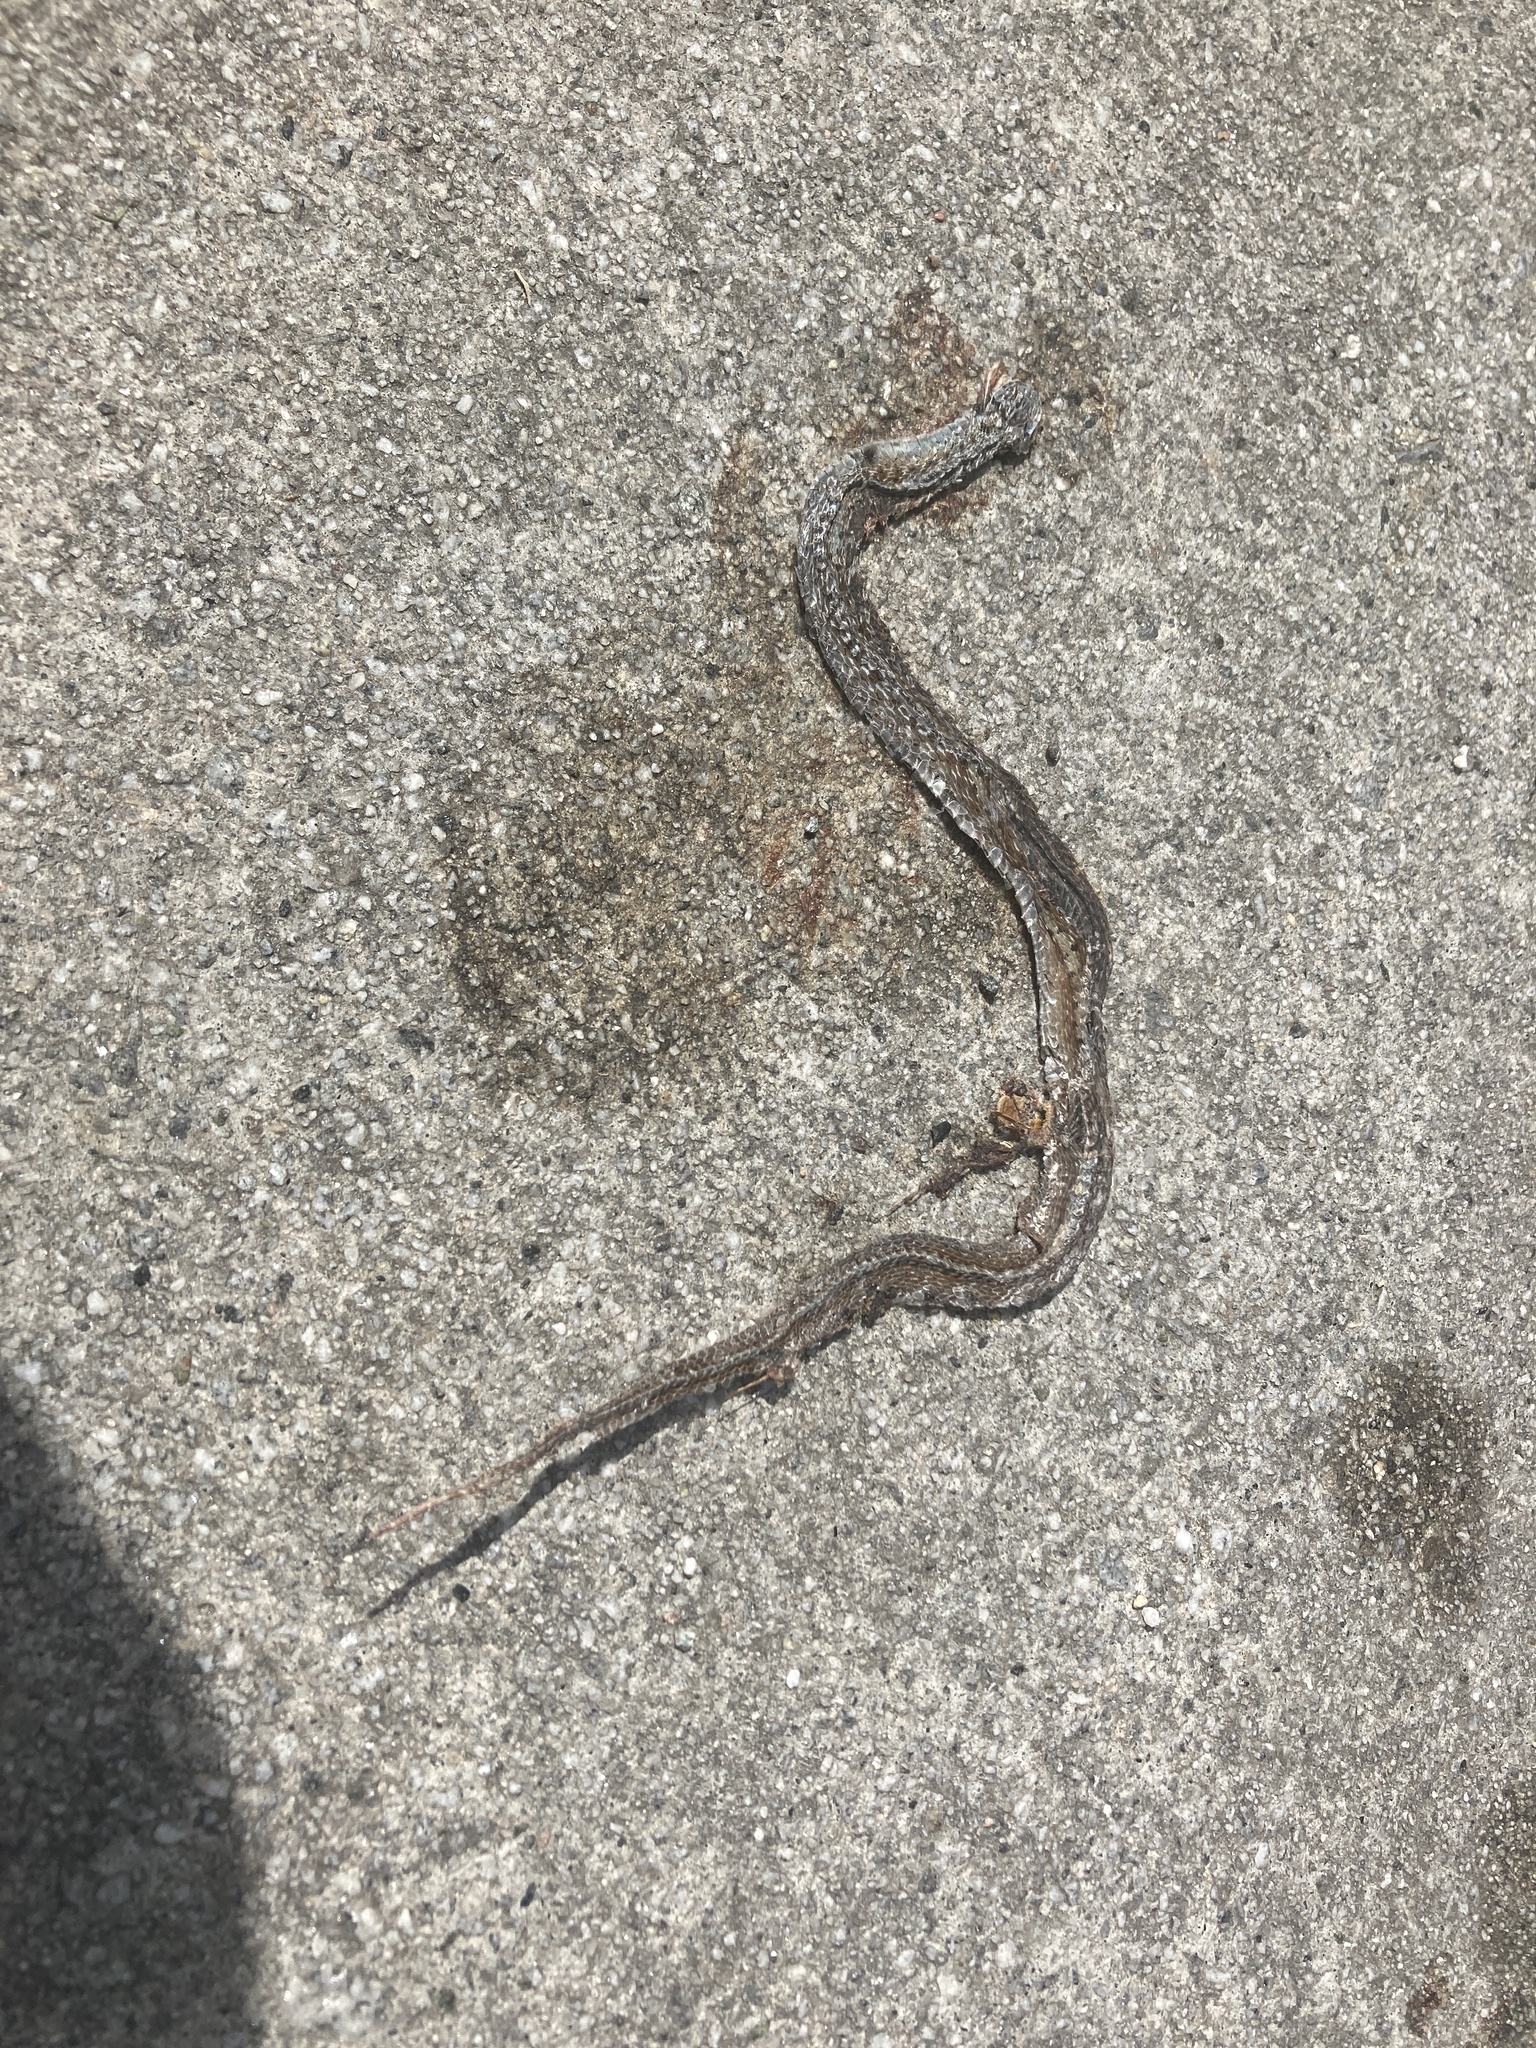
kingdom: Animalia
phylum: Chordata
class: Squamata
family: Colubridae
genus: Storeria
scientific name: Storeria dekayi
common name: (dekay’s) brown snake
